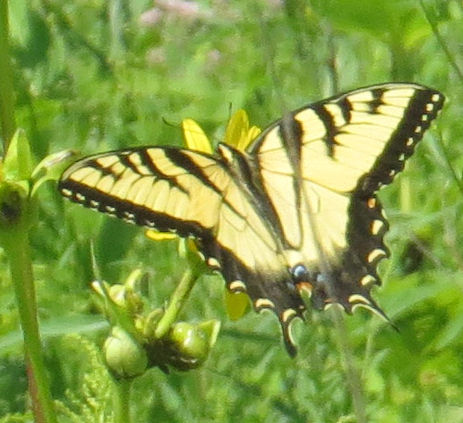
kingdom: Animalia
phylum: Arthropoda
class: Insecta
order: Lepidoptera
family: Papilionidae
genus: Papilio
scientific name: Papilio glaucus
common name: Tiger swallowtail
